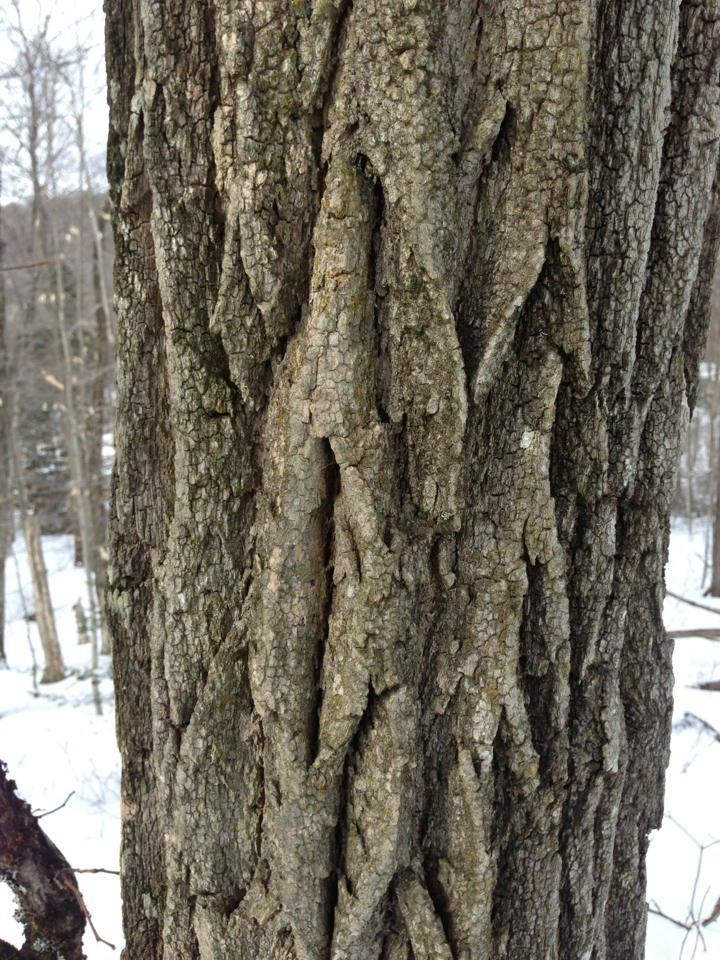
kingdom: Plantae
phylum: Tracheophyta
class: Magnoliopsida
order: Fabales
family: Fabaceae
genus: Robinia
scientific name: Robinia pseudoacacia
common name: Black locust
